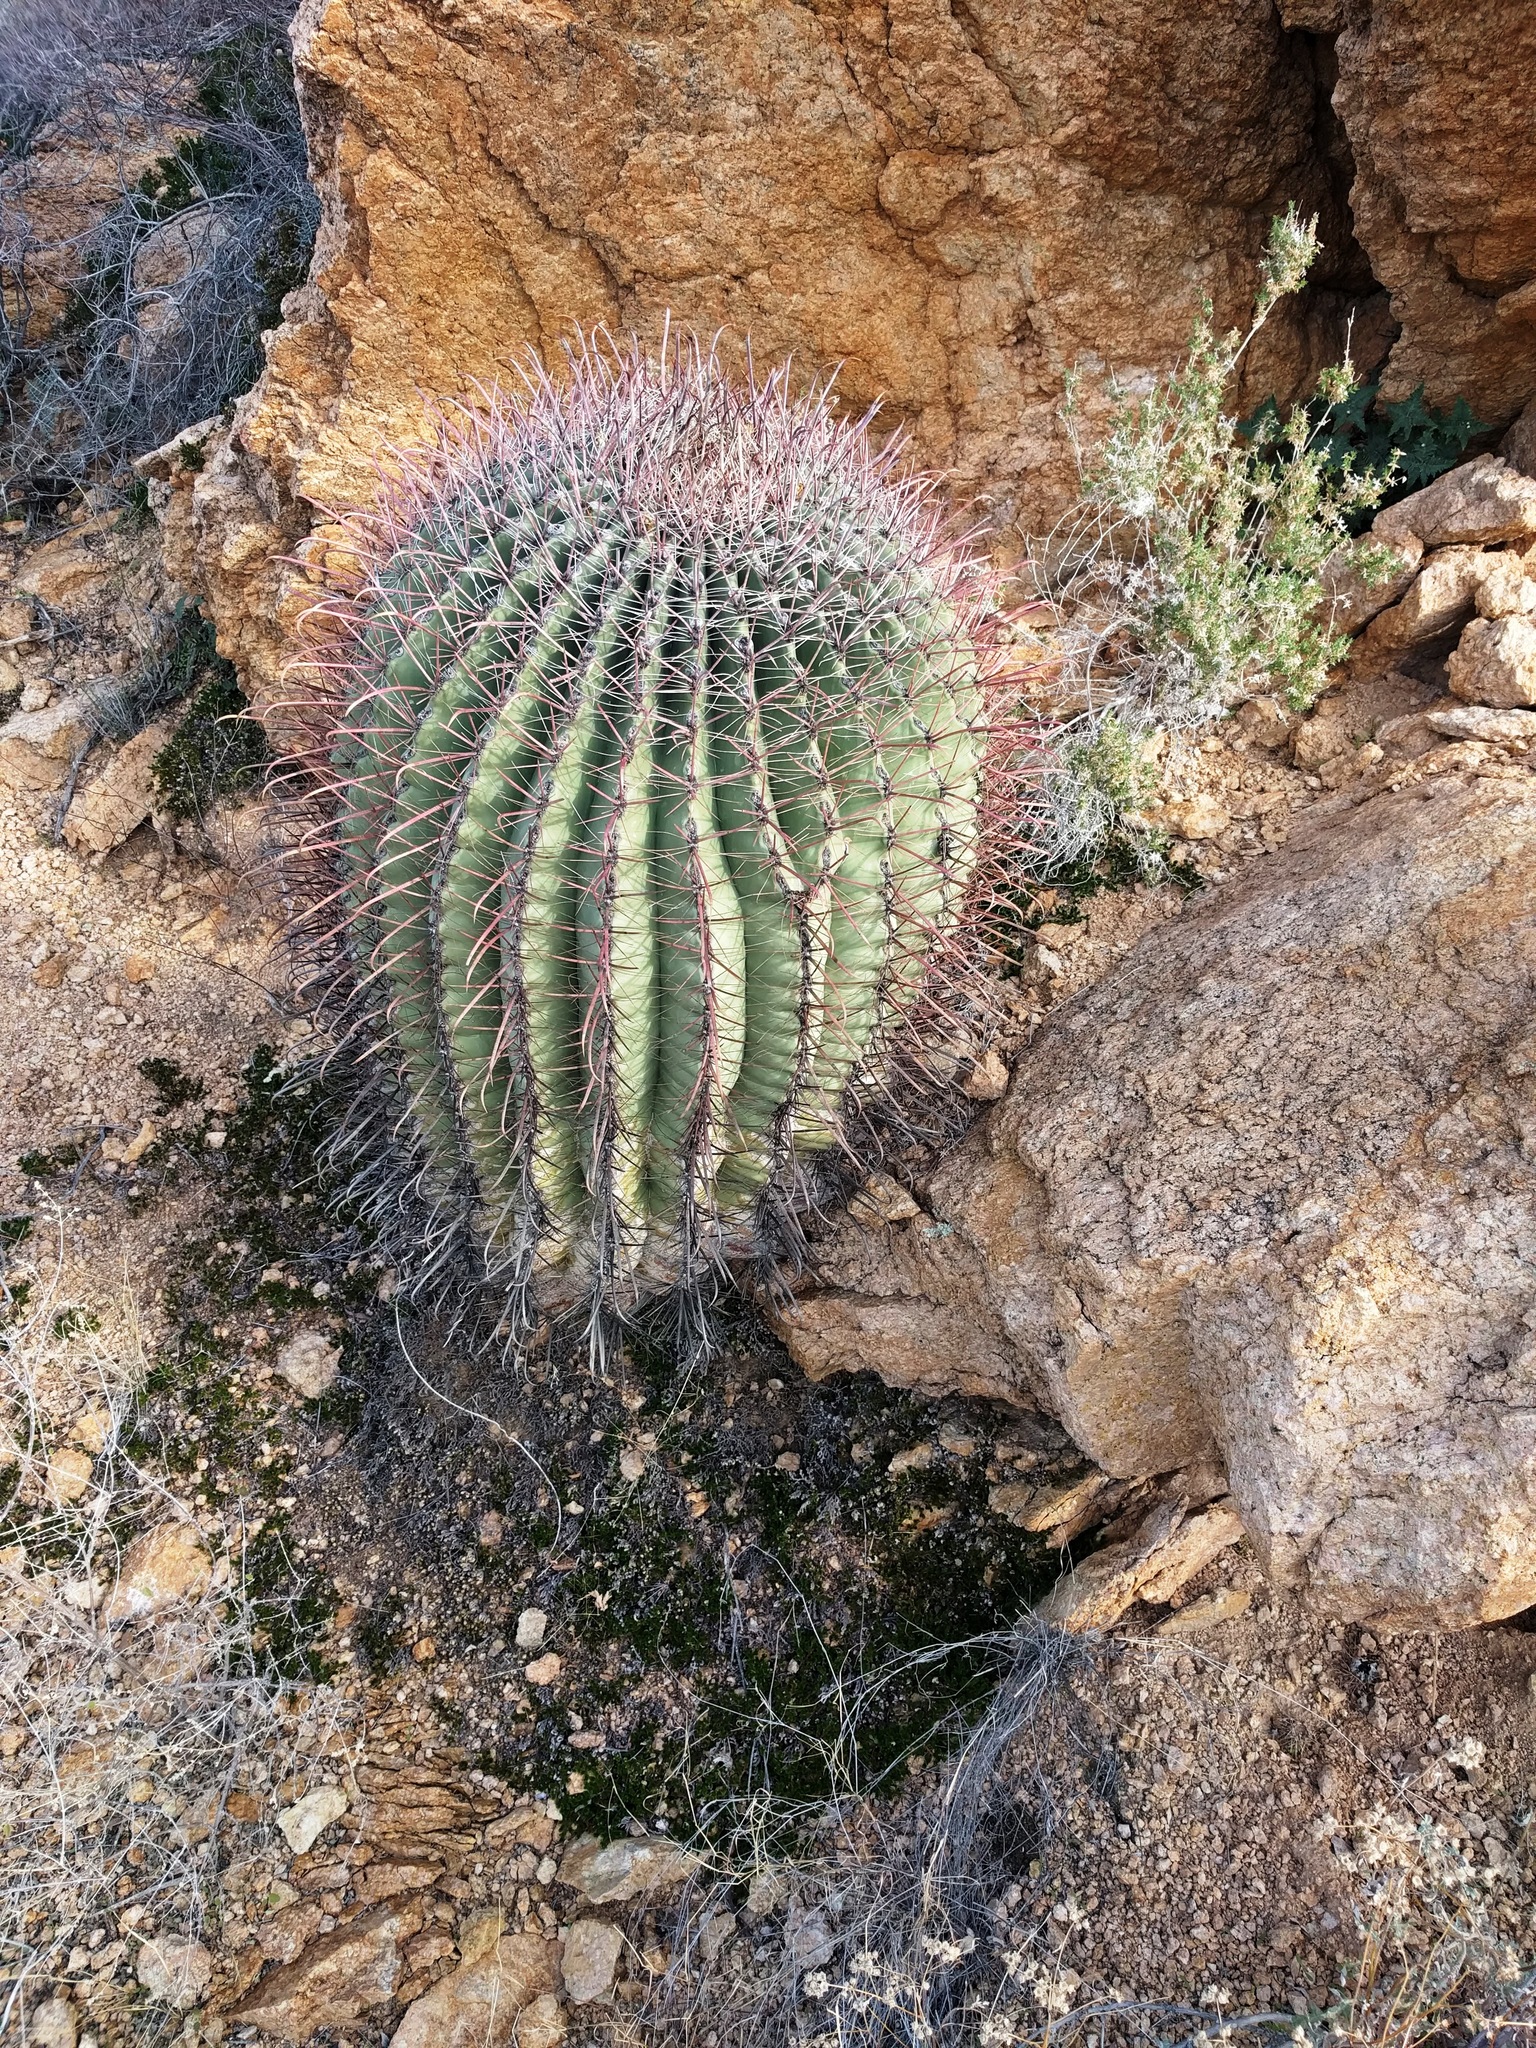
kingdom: Plantae
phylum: Tracheophyta
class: Magnoliopsida
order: Caryophyllales
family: Cactaceae
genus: Ferocactus
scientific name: Ferocactus wislizeni
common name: Candy barrel cactus
